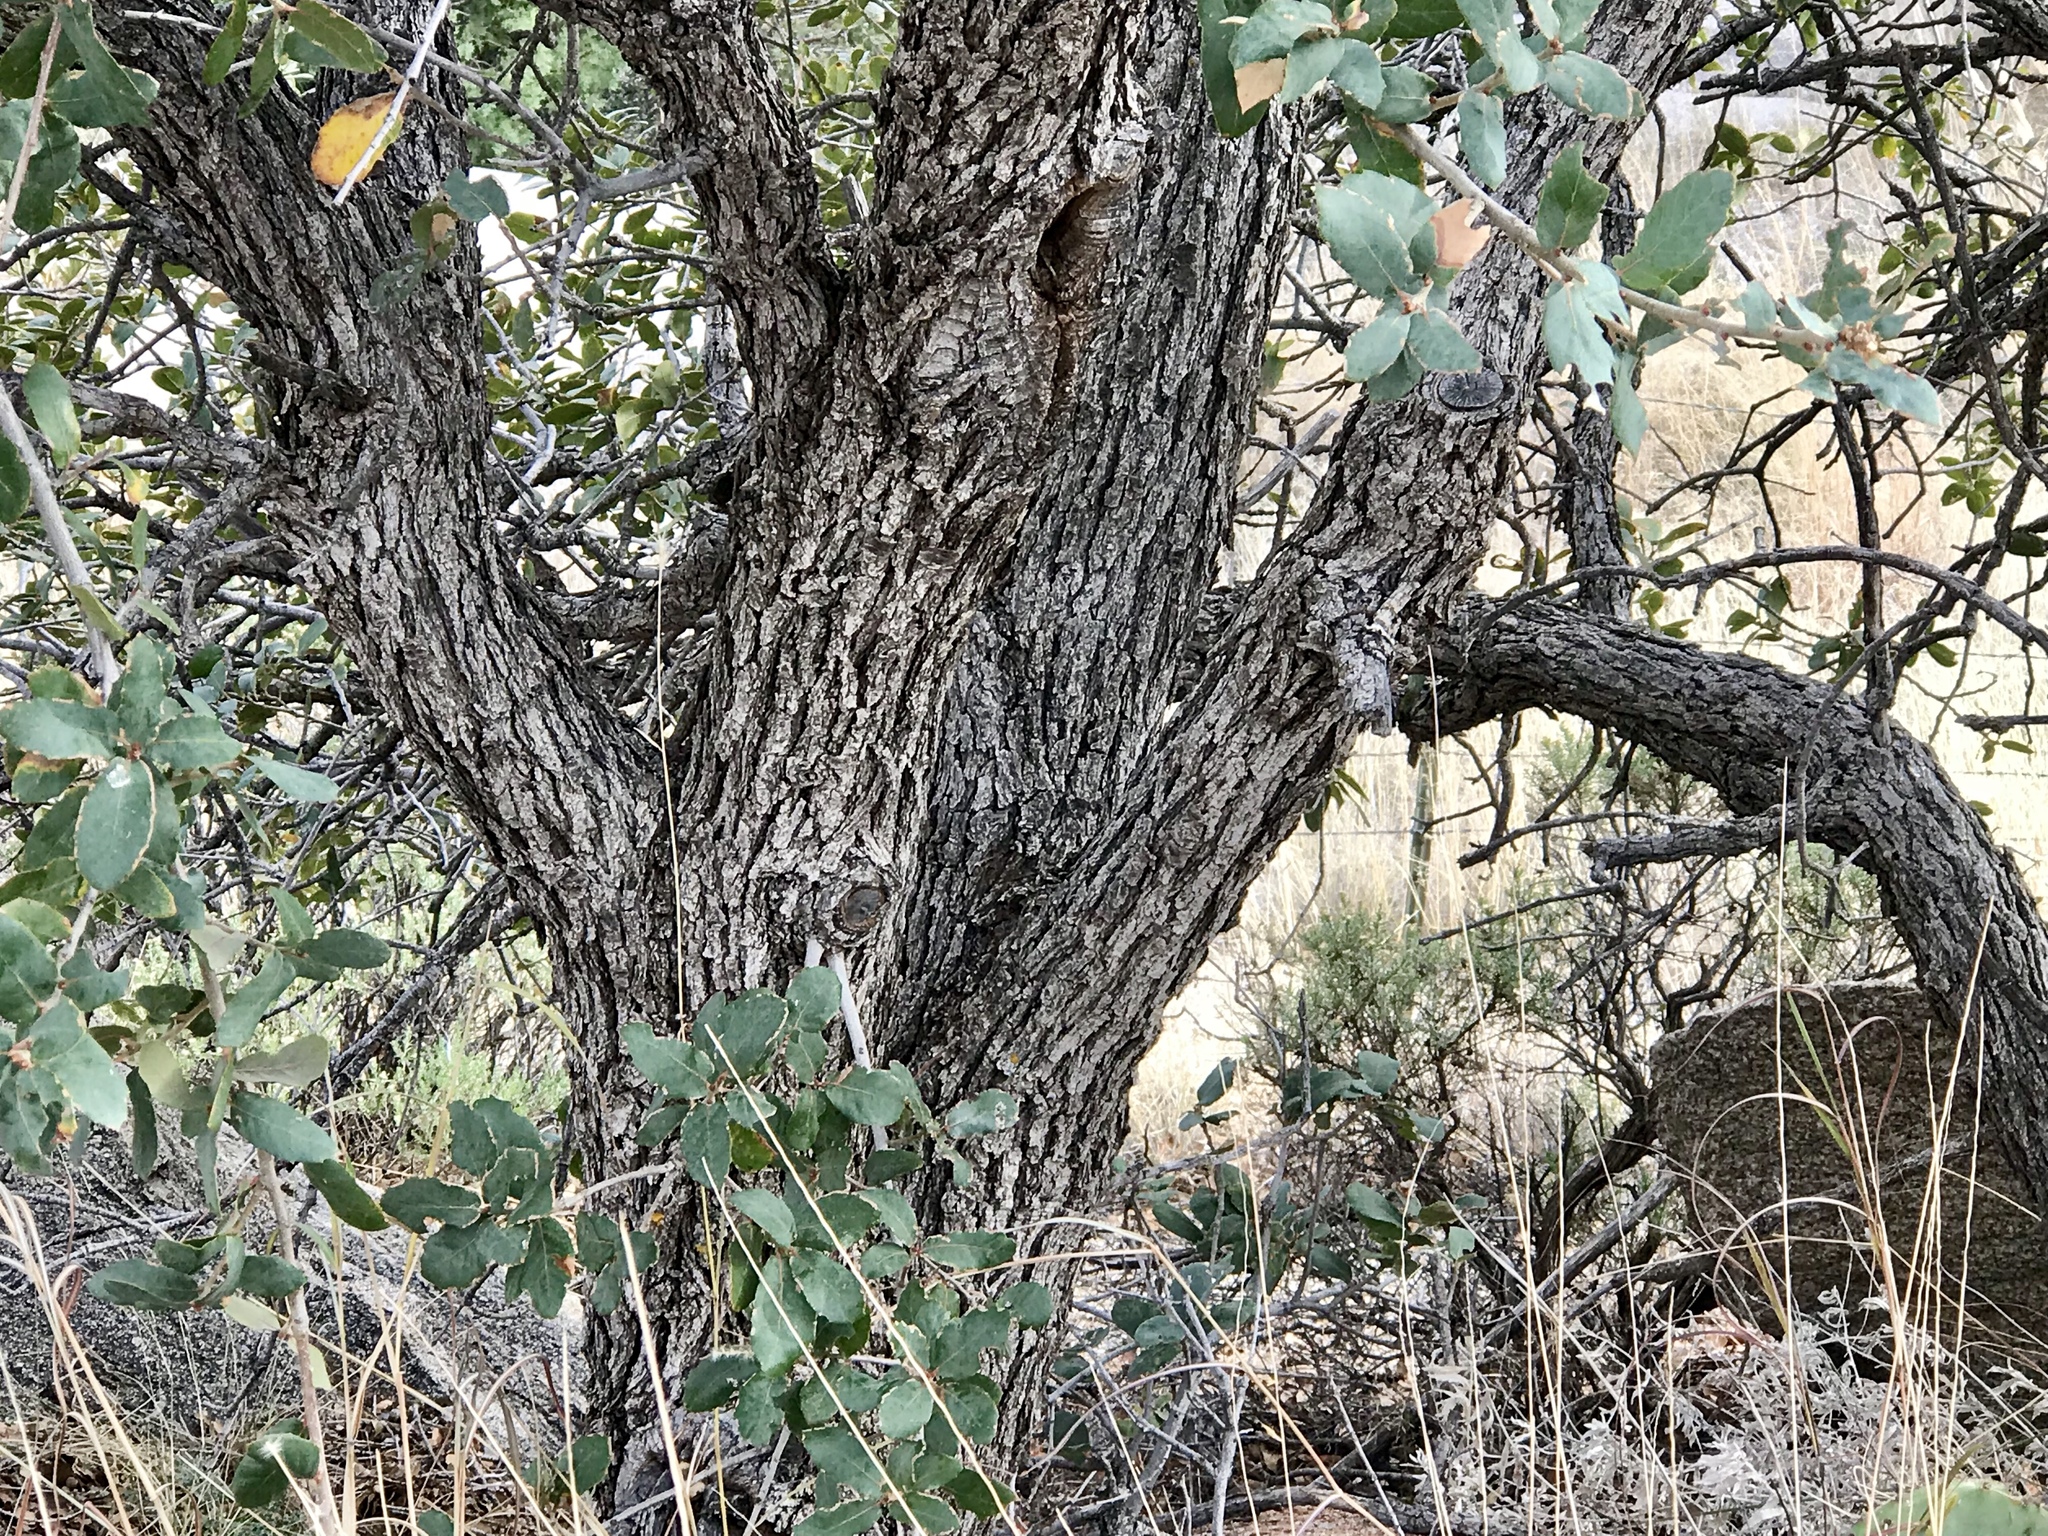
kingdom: Plantae
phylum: Tracheophyta
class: Magnoliopsida
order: Fagales
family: Fagaceae
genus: Quercus
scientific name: Quercus arizonica
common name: Arizona white oak
